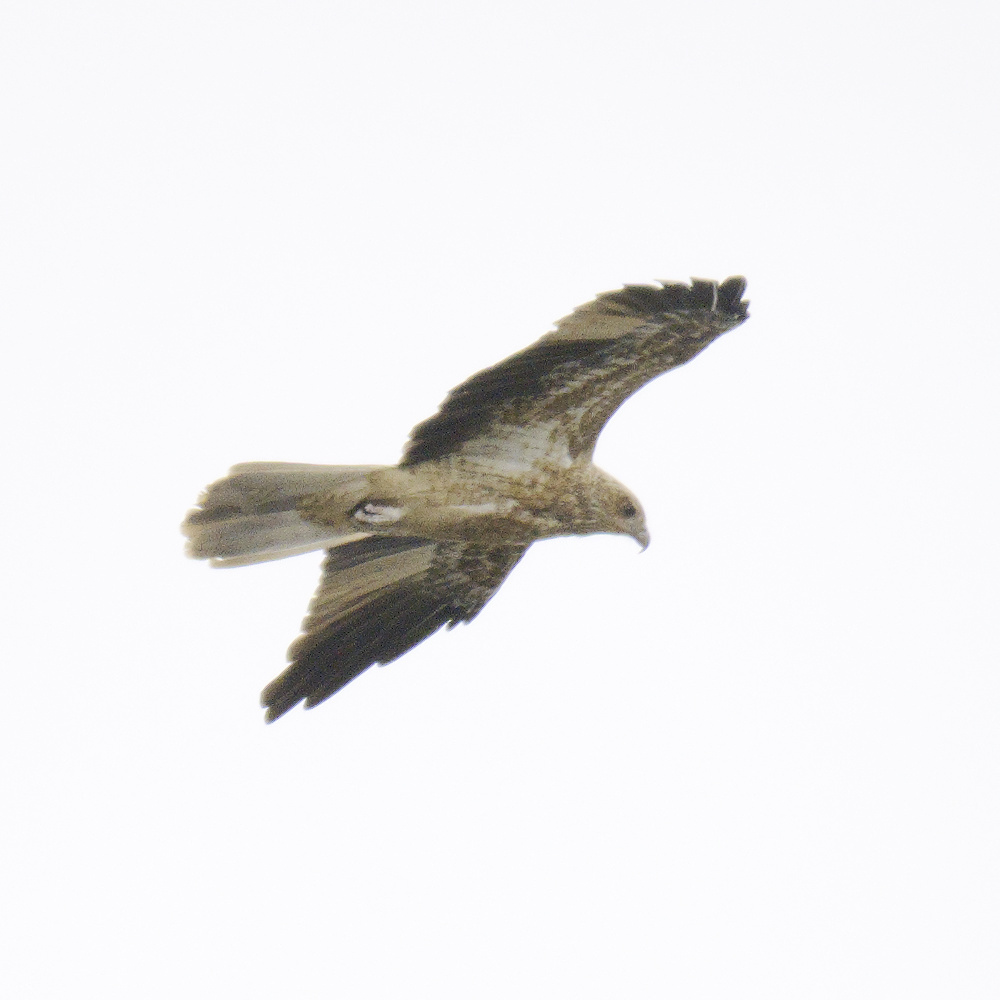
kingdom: Animalia
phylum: Chordata
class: Aves
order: Accipitriformes
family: Accipitridae
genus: Haliastur
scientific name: Haliastur sphenurus
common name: Whistling kite
